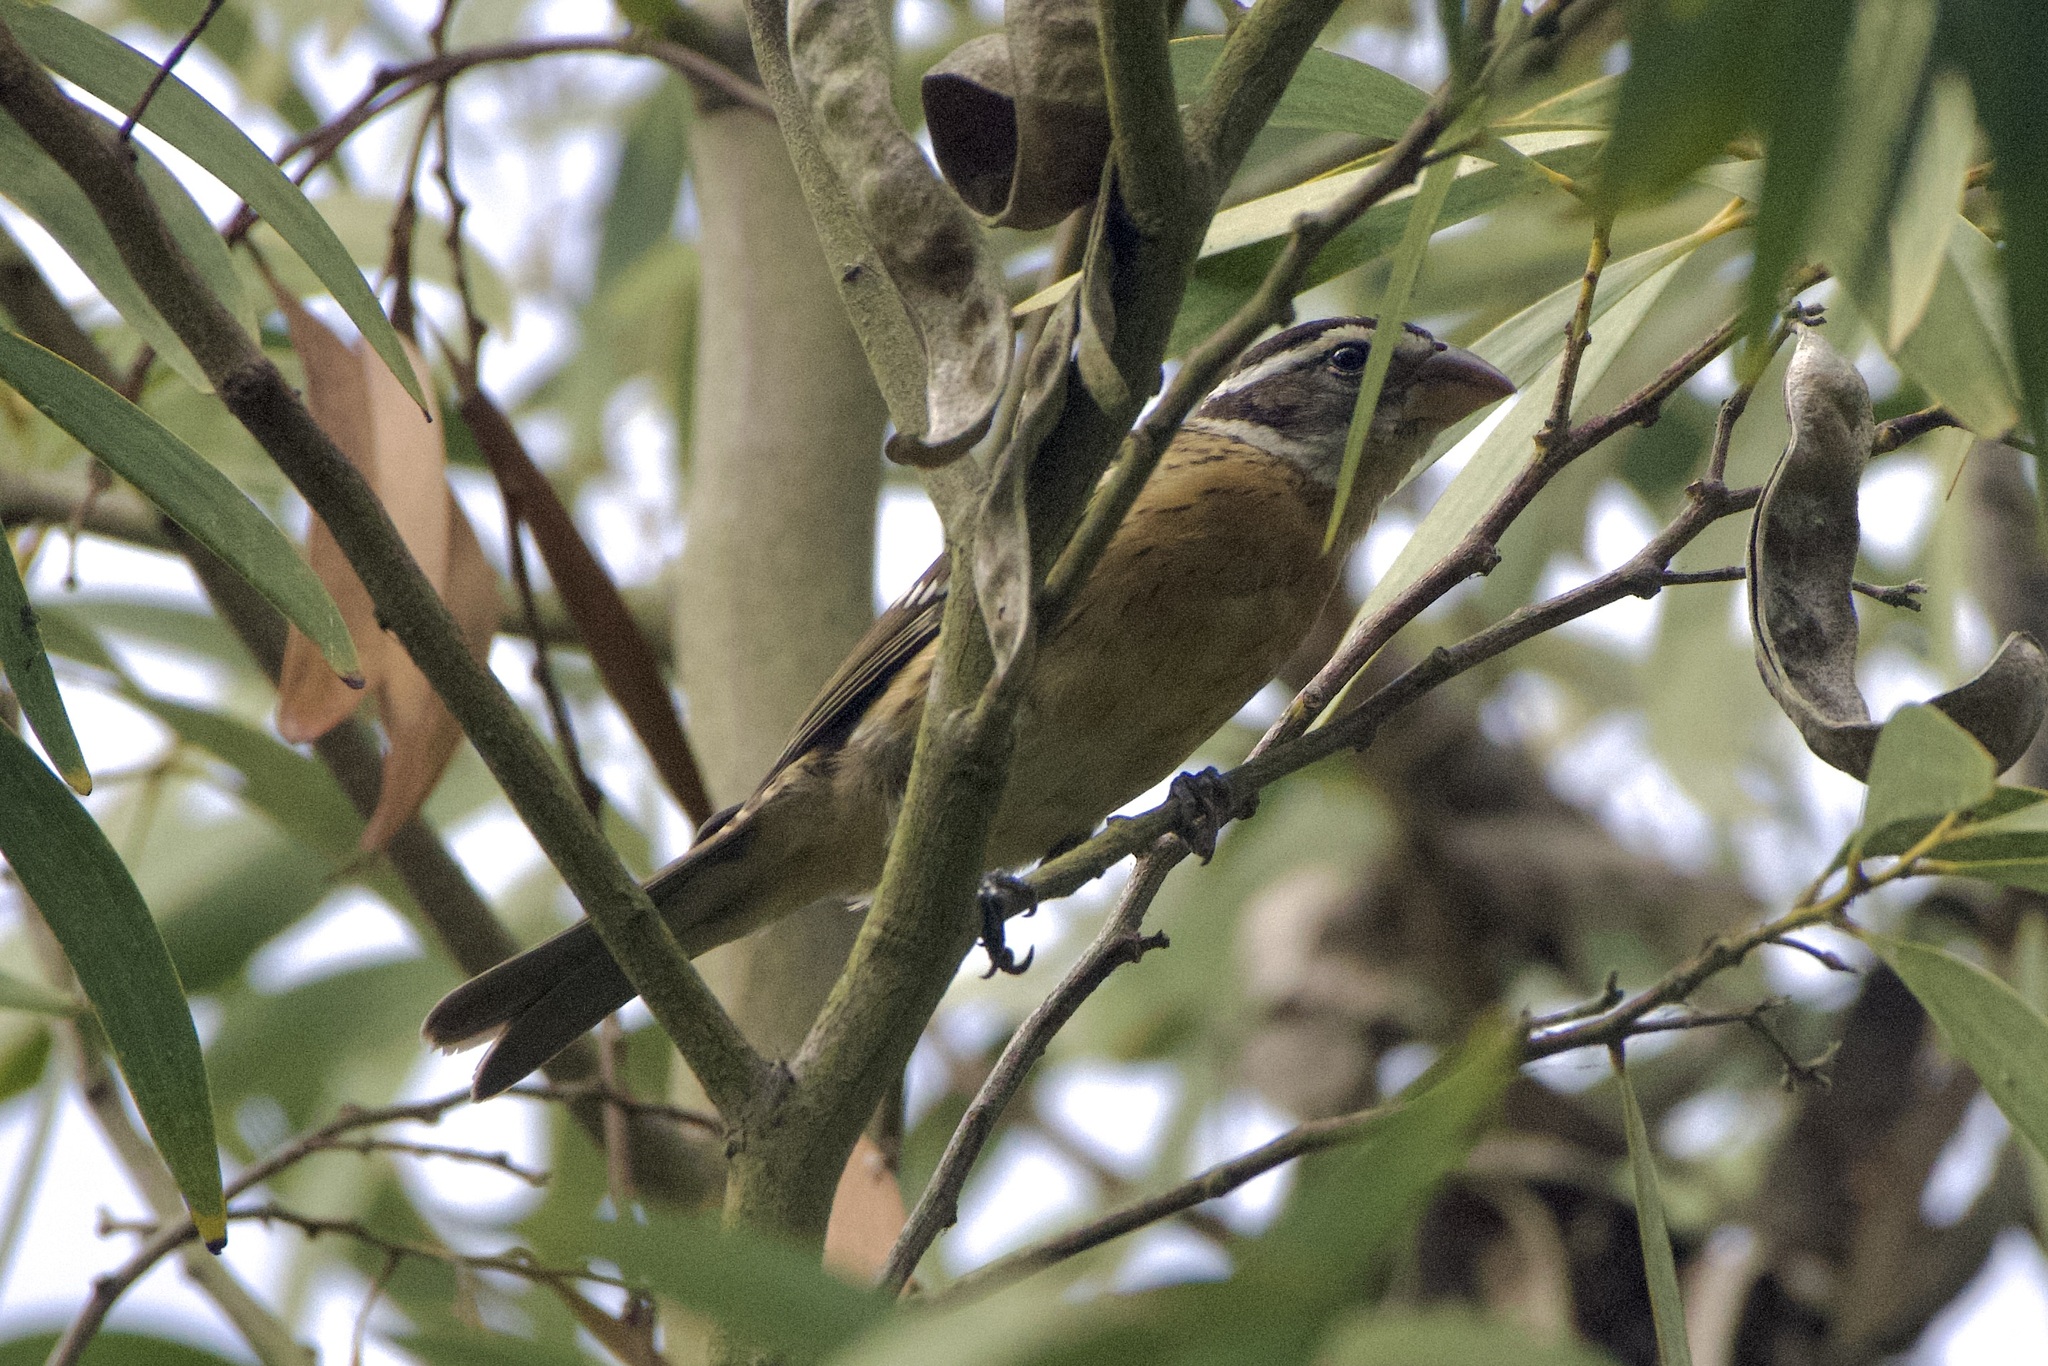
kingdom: Animalia
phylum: Chordata
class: Aves
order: Passeriformes
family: Cardinalidae
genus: Pheucticus
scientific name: Pheucticus melanocephalus
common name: Black-headed grosbeak
